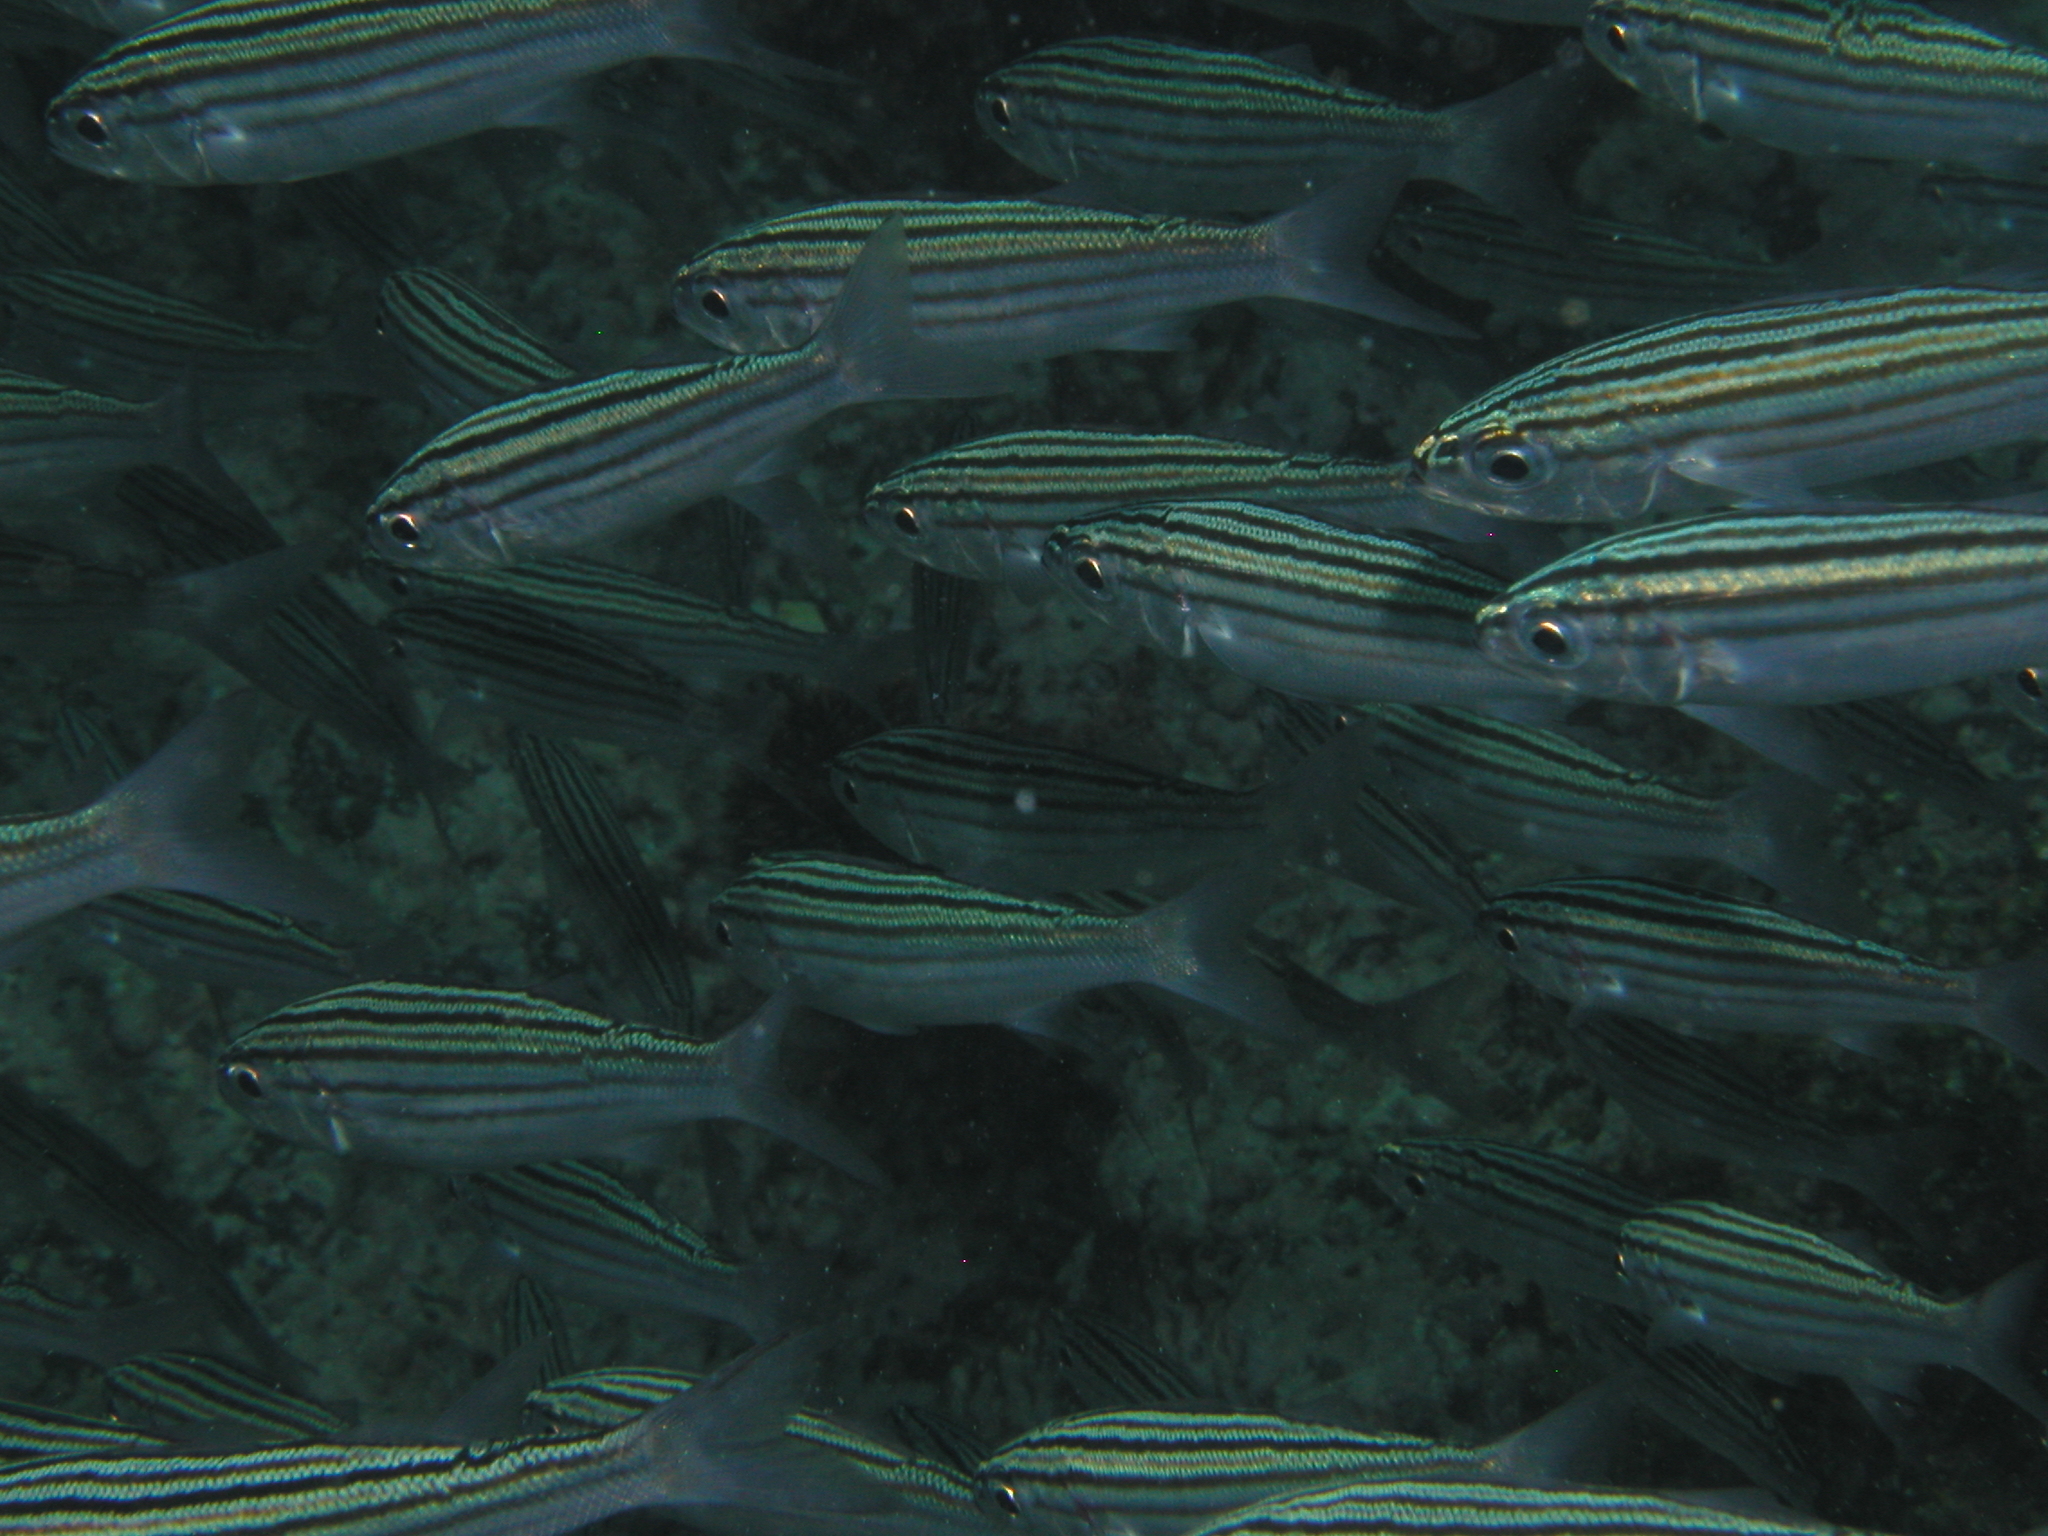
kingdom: Animalia
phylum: Chordata
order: Perciformes
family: Haemulidae
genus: Xenocys
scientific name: Xenocys jessiae
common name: Black-striped salema
